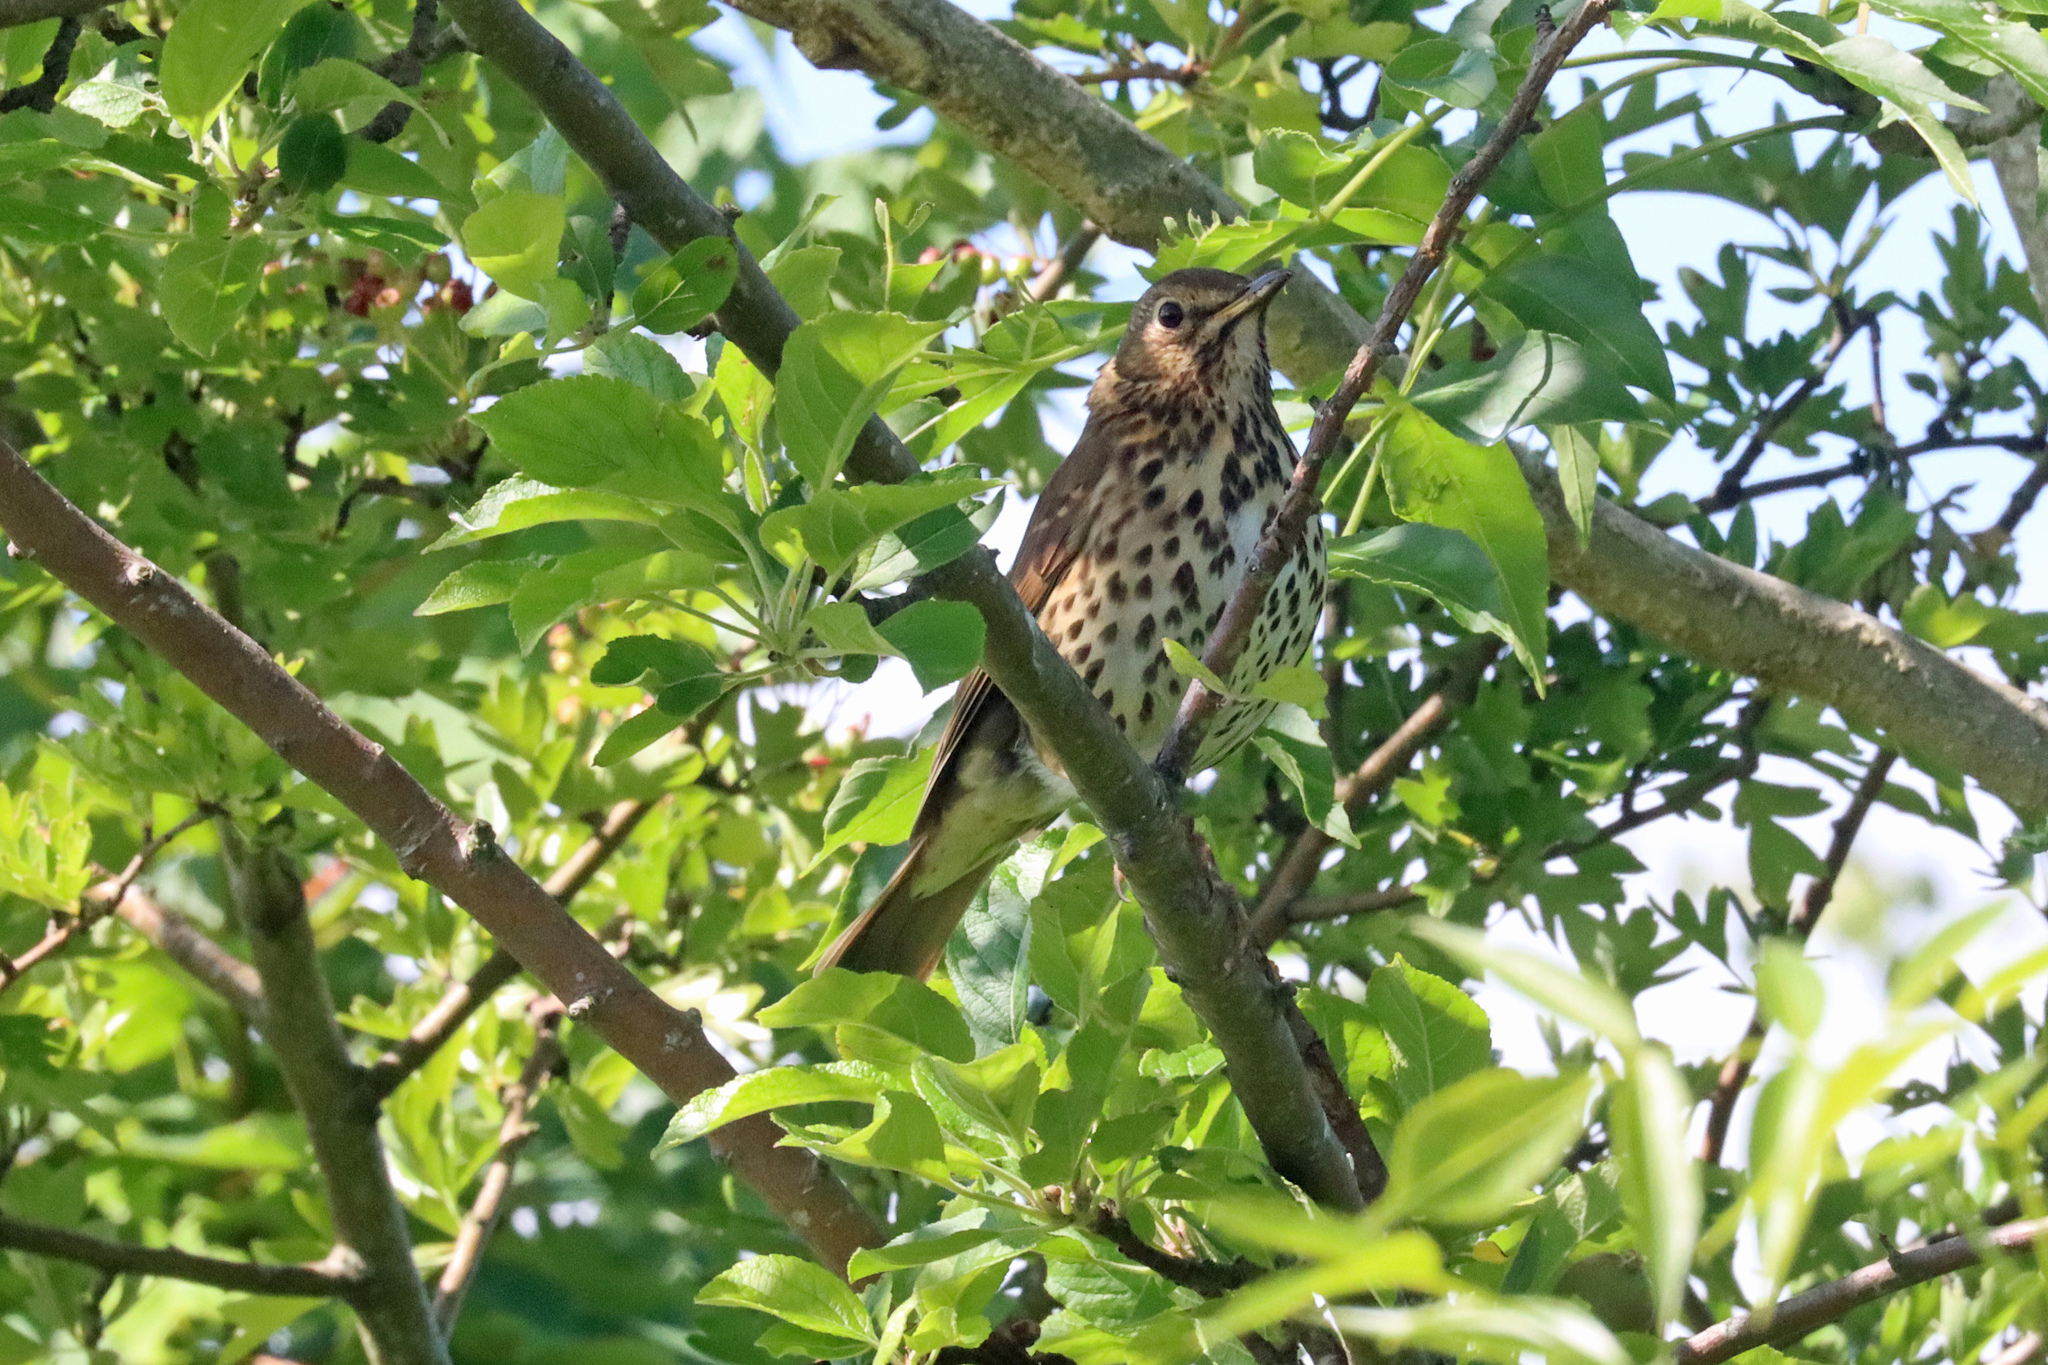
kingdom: Animalia
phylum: Chordata
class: Aves
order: Passeriformes
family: Turdidae
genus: Turdus
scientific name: Turdus philomelos
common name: Song thrush
